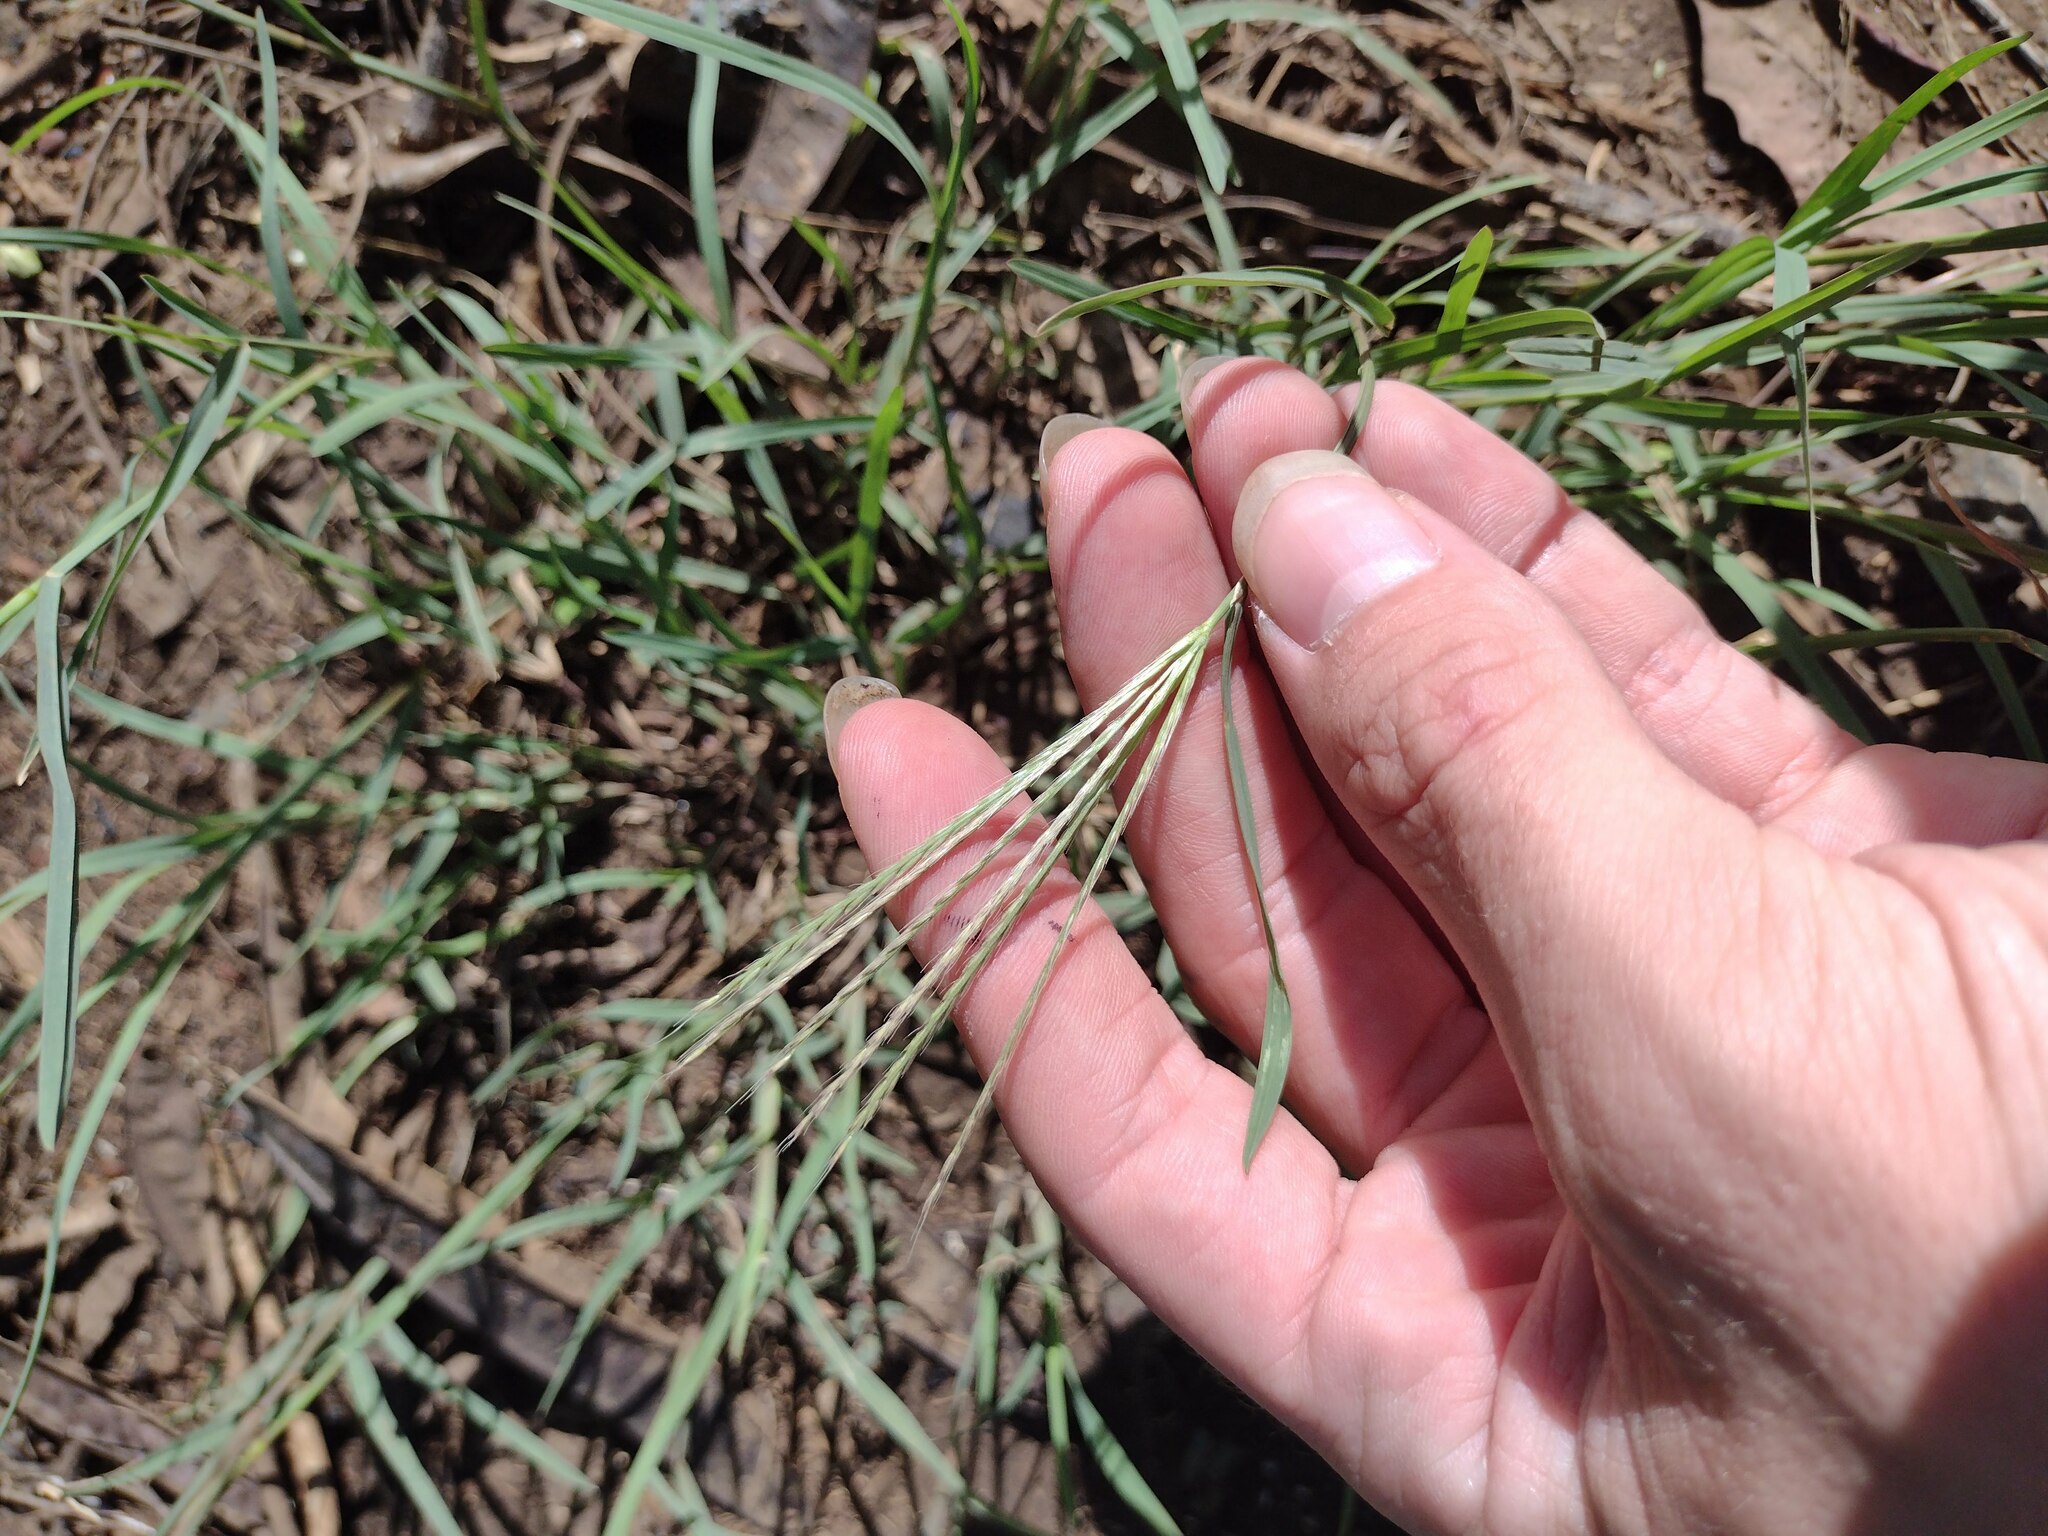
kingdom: Plantae
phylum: Tracheophyta
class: Liliopsida
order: Poales
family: Poaceae
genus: Chloris
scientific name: Chloris divaricata
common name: Spreading windmill grass
